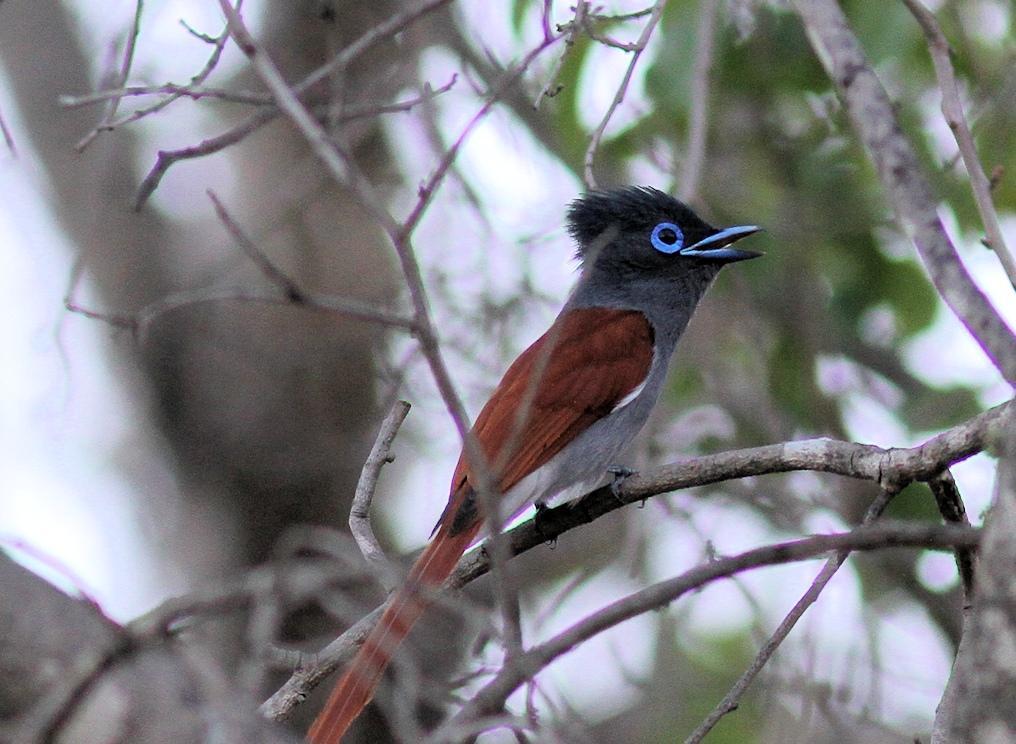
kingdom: Animalia
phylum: Chordata
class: Aves
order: Passeriformes
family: Monarchidae
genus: Terpsiphone
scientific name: Terpsiphone viridis
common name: African paradise flycatcher
